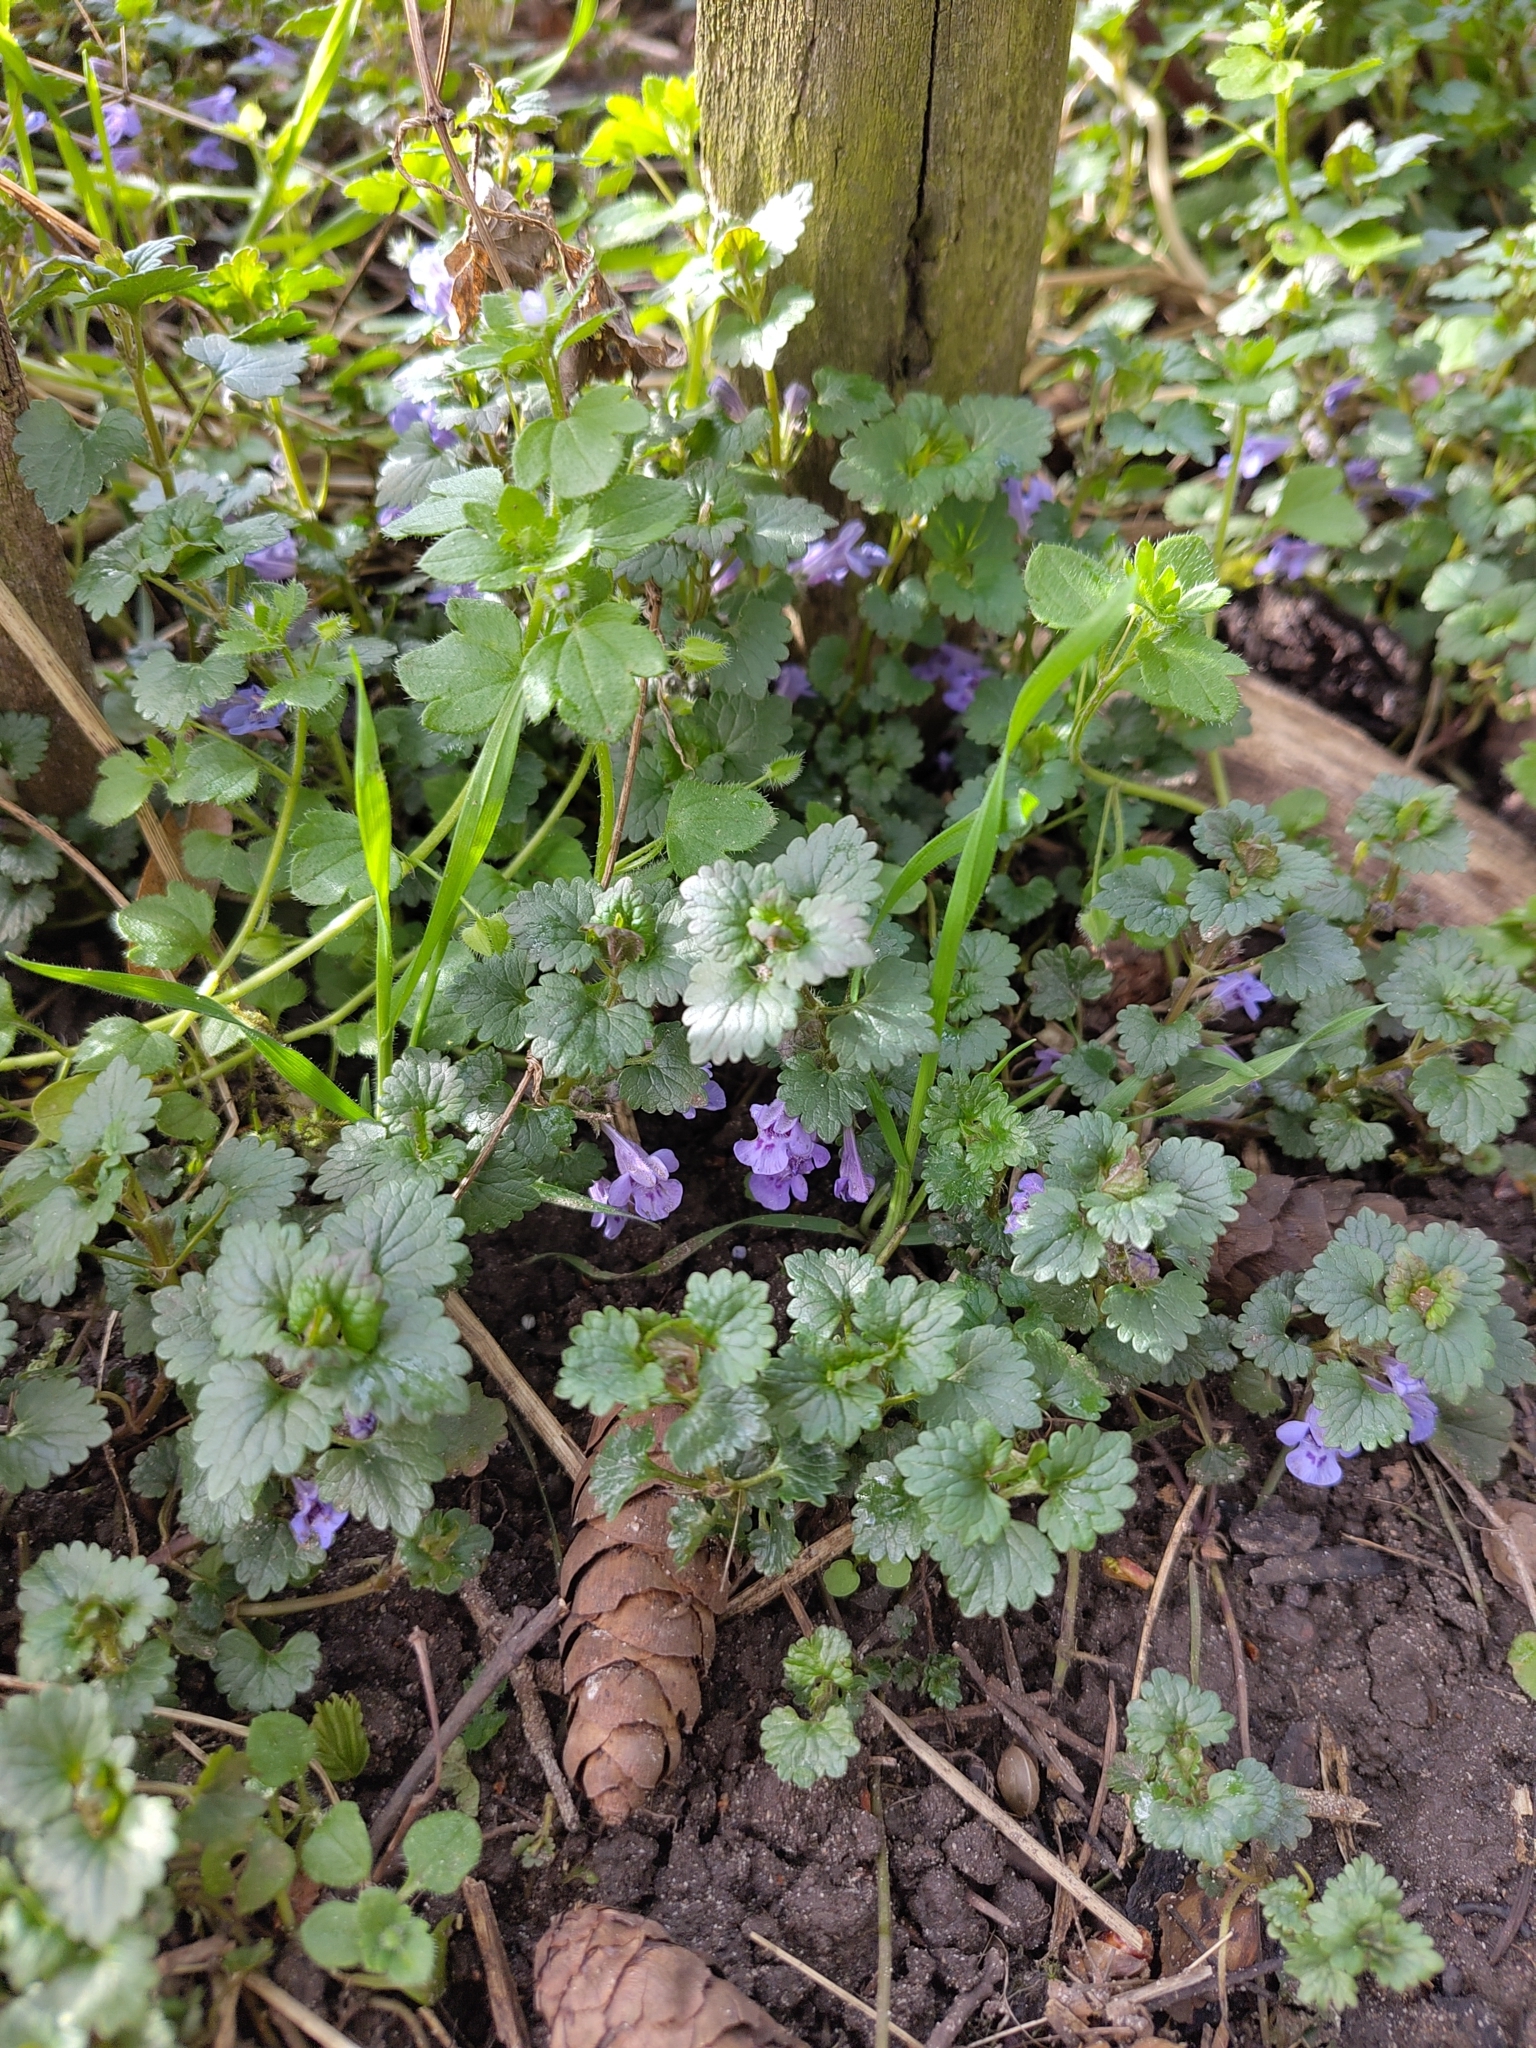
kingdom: Plantae
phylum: Tracheophyta
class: Magnoliopsida
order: Lamiales
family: Lamiaceae
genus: Glechoma
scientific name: Glechoma hederacea
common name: Ground ivy
